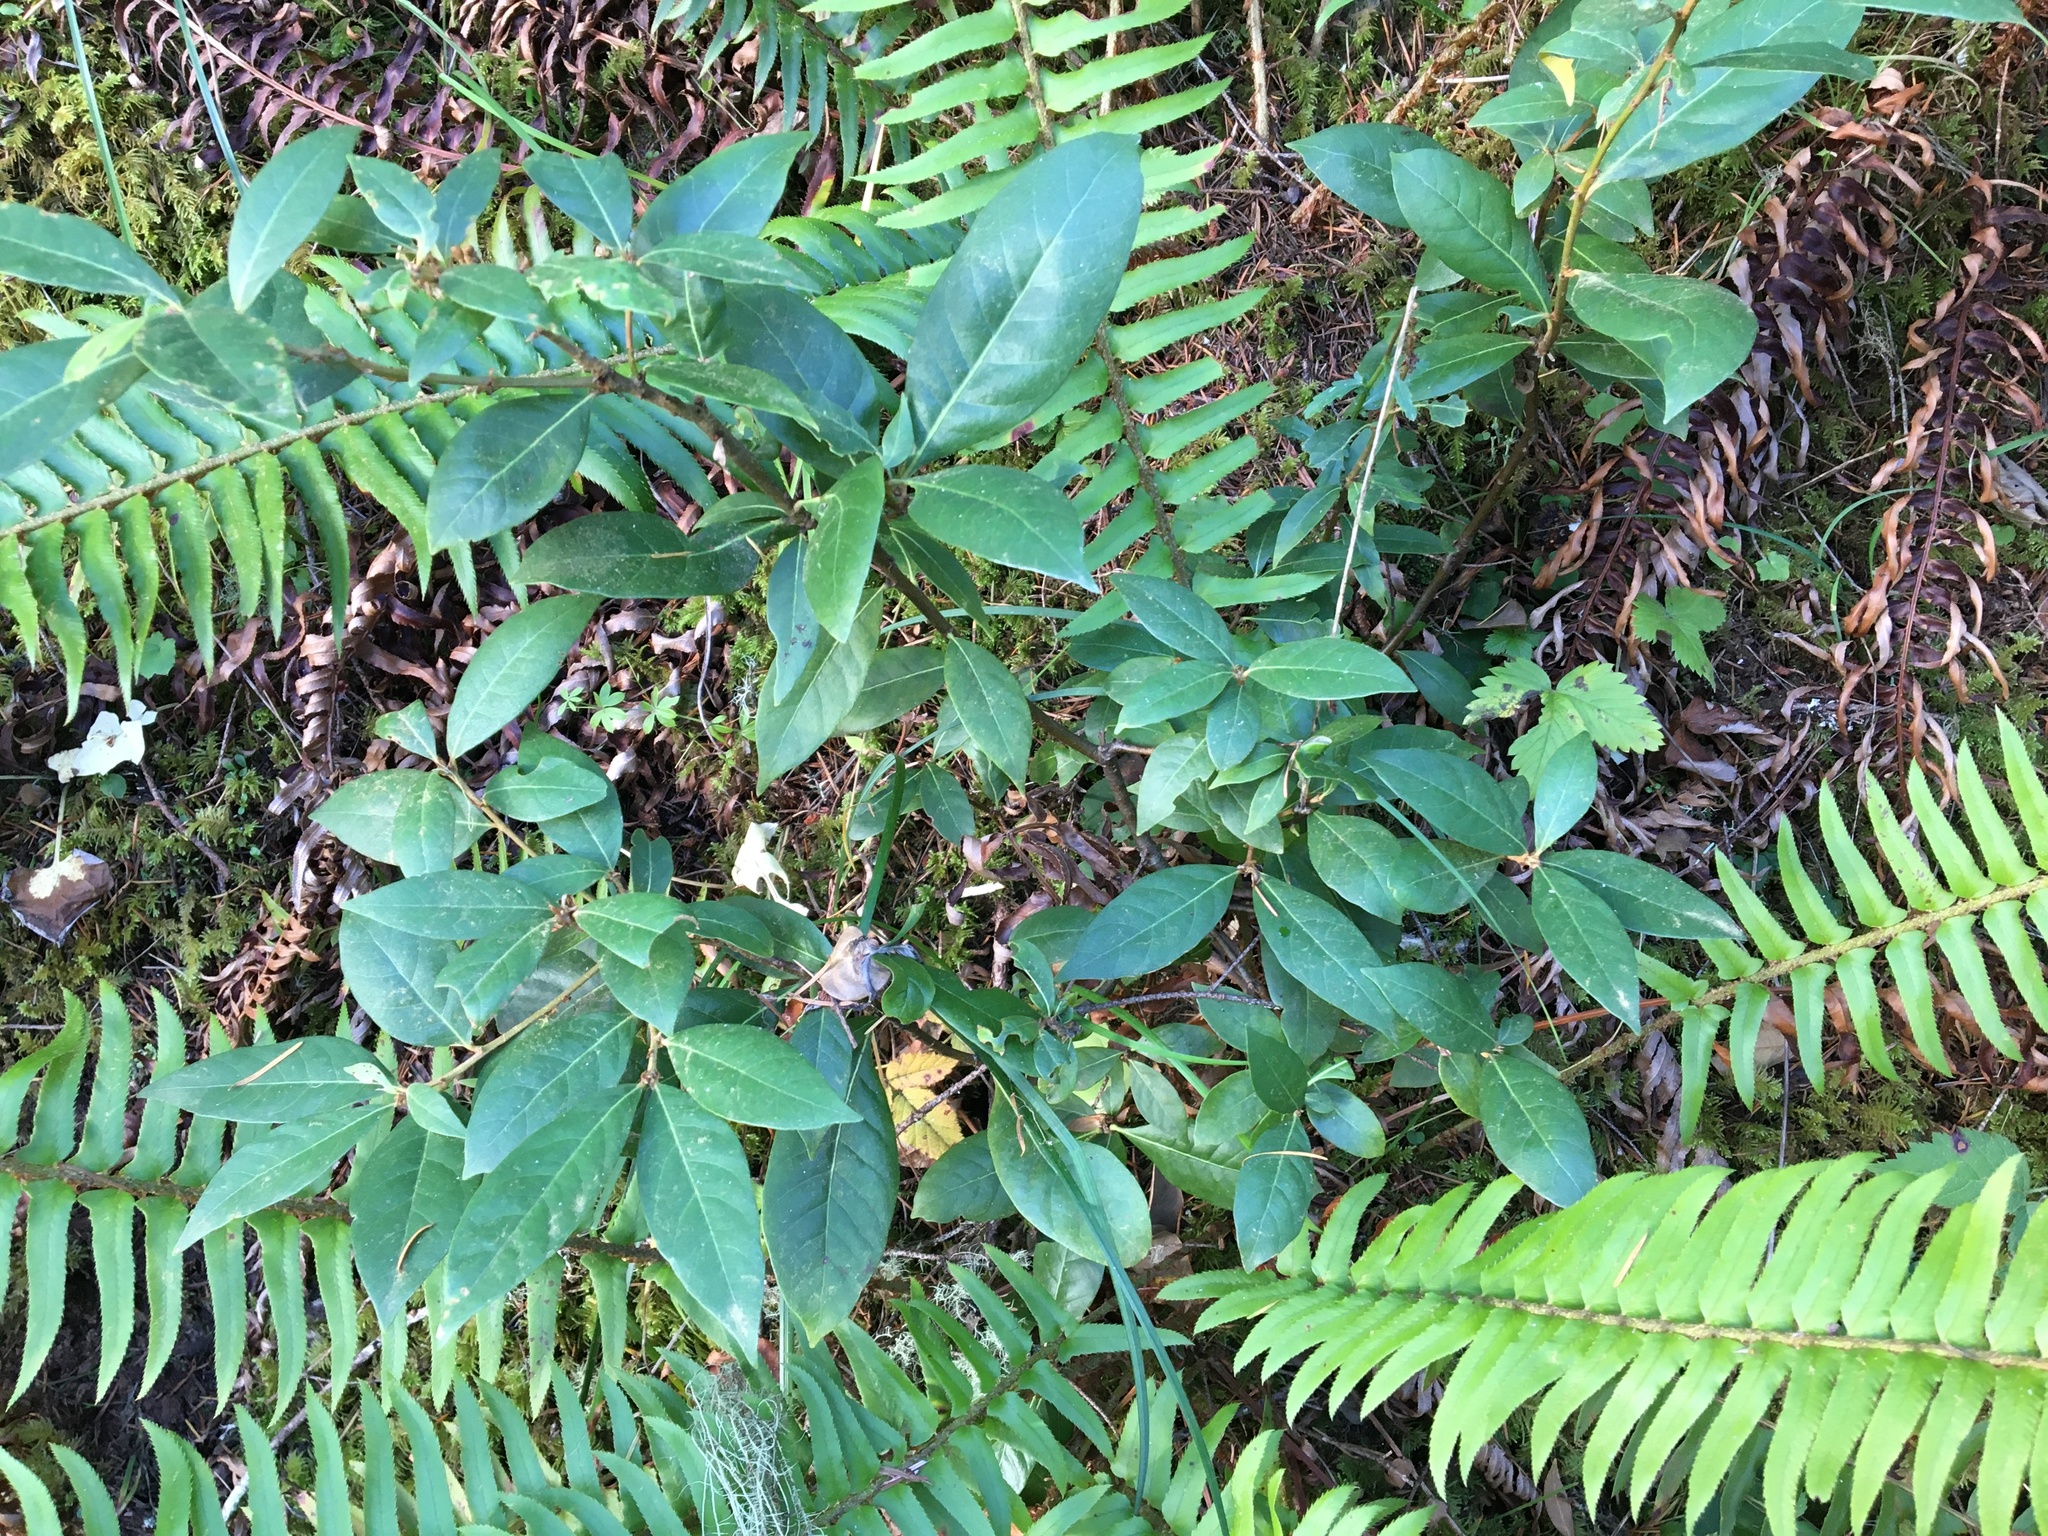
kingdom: Plantae
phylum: Tracheophyta
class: Magnoliopsida
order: Fagales
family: Fagaceae
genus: Chrysolepis
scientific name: Chrysolepis chrysophylla
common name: Giant chinquapin
